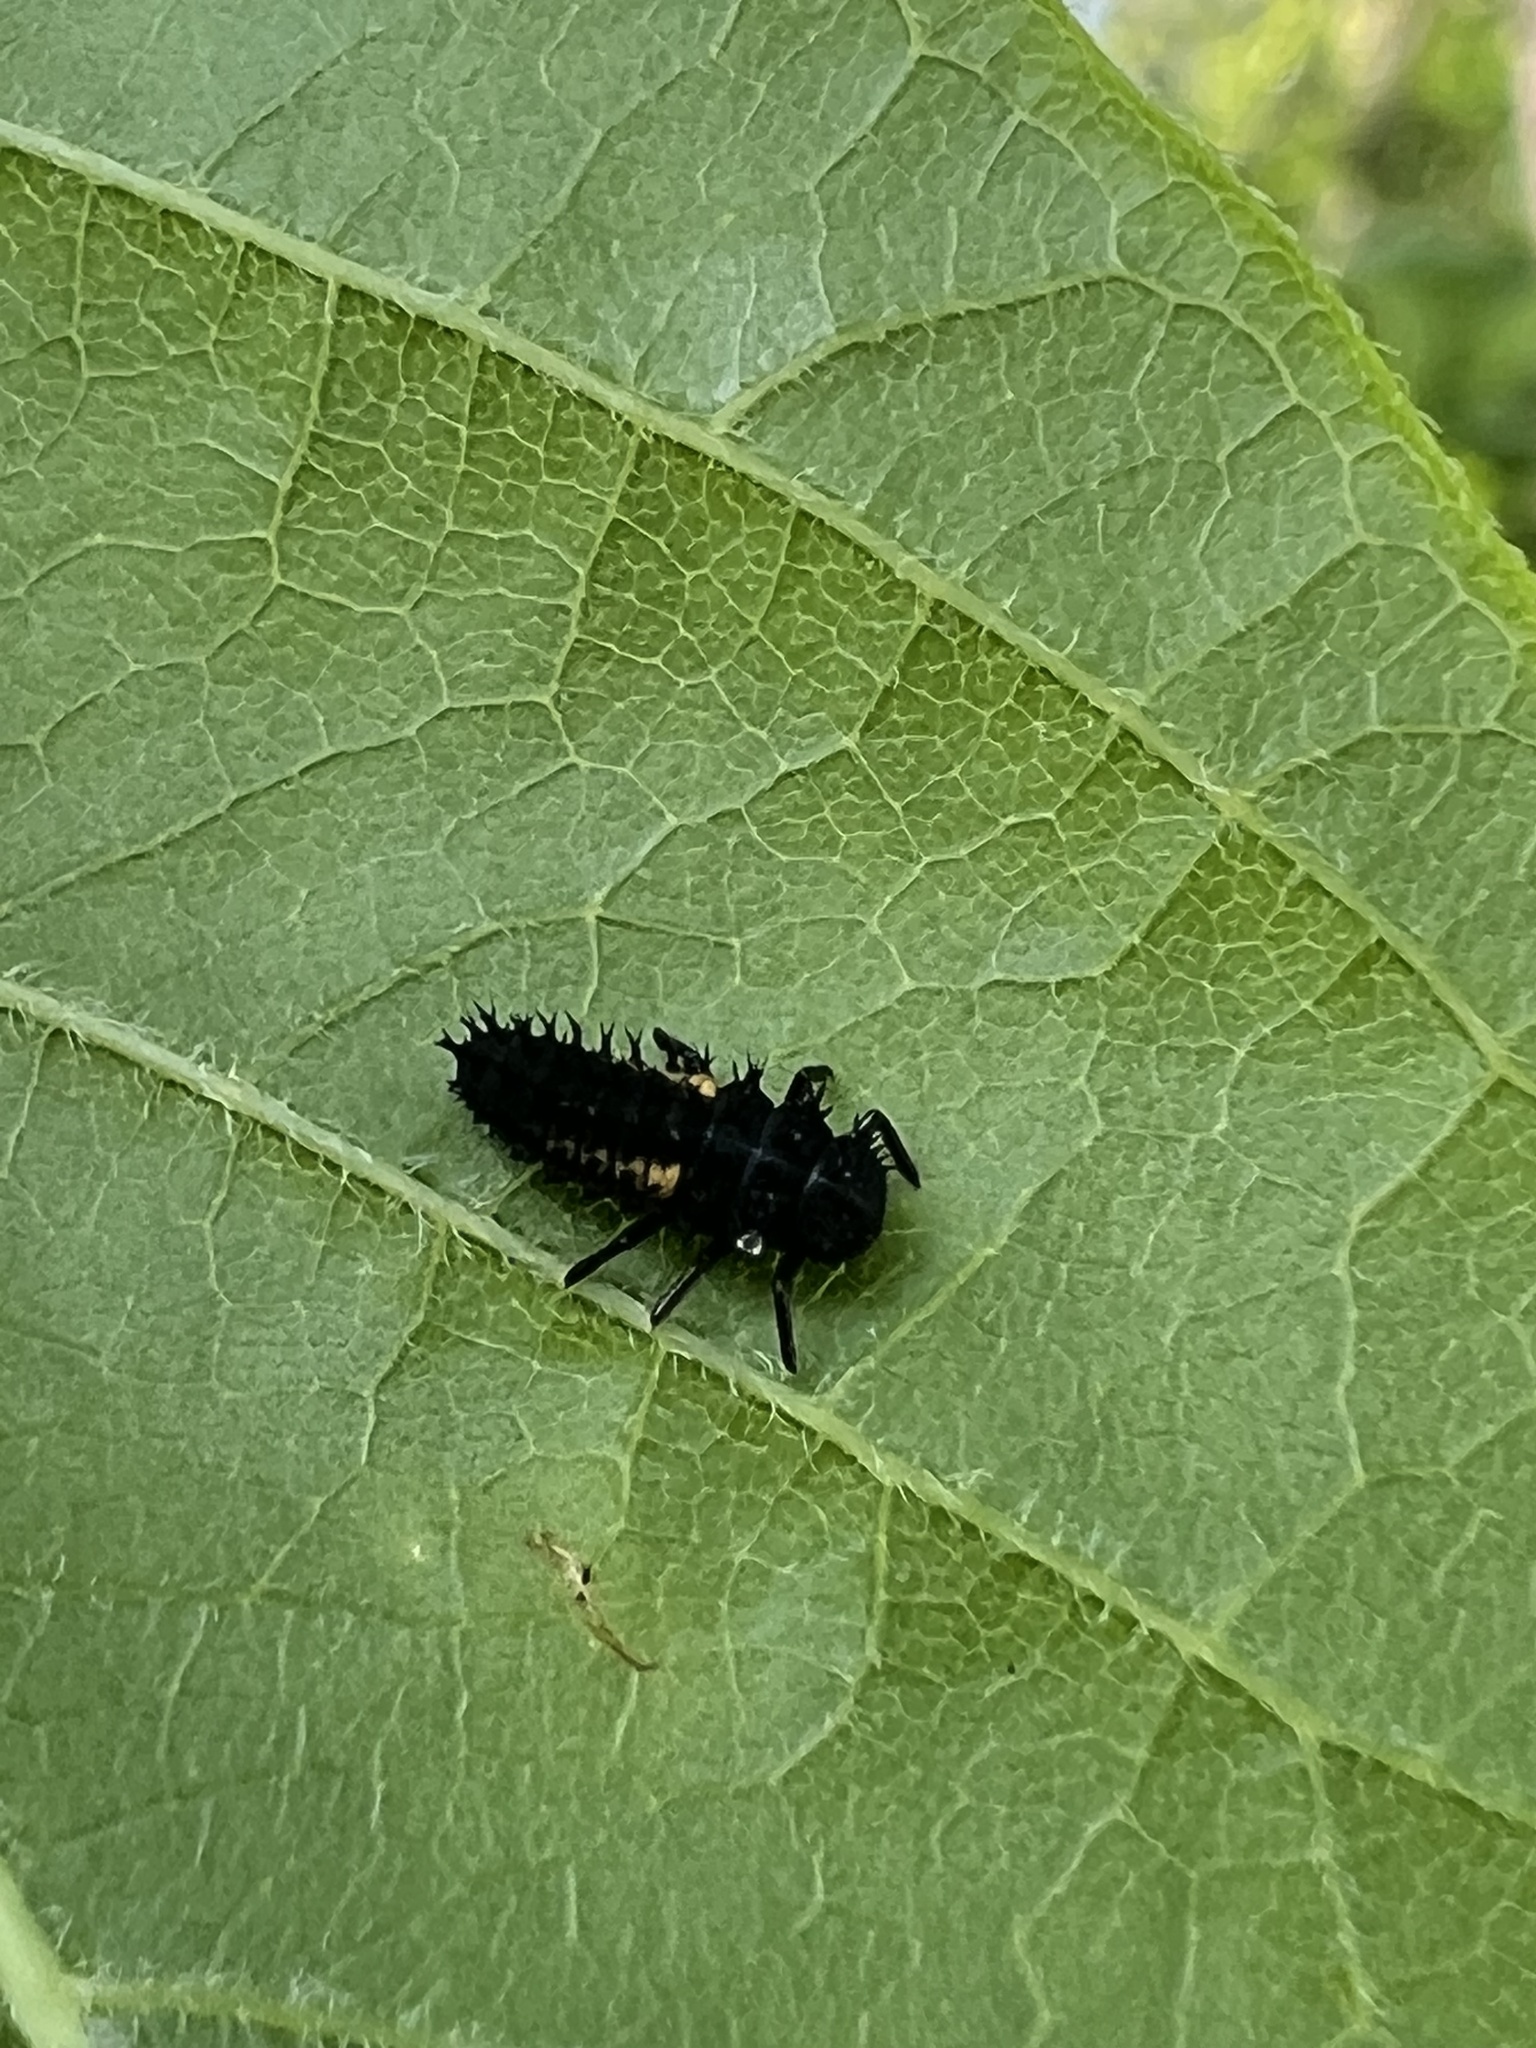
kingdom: Animalia
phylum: Arthropoda
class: Insecta
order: Coleoptera
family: Coccinellidae
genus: Harmonia
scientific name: Harmonia axyridis
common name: Harlequin ladybird
